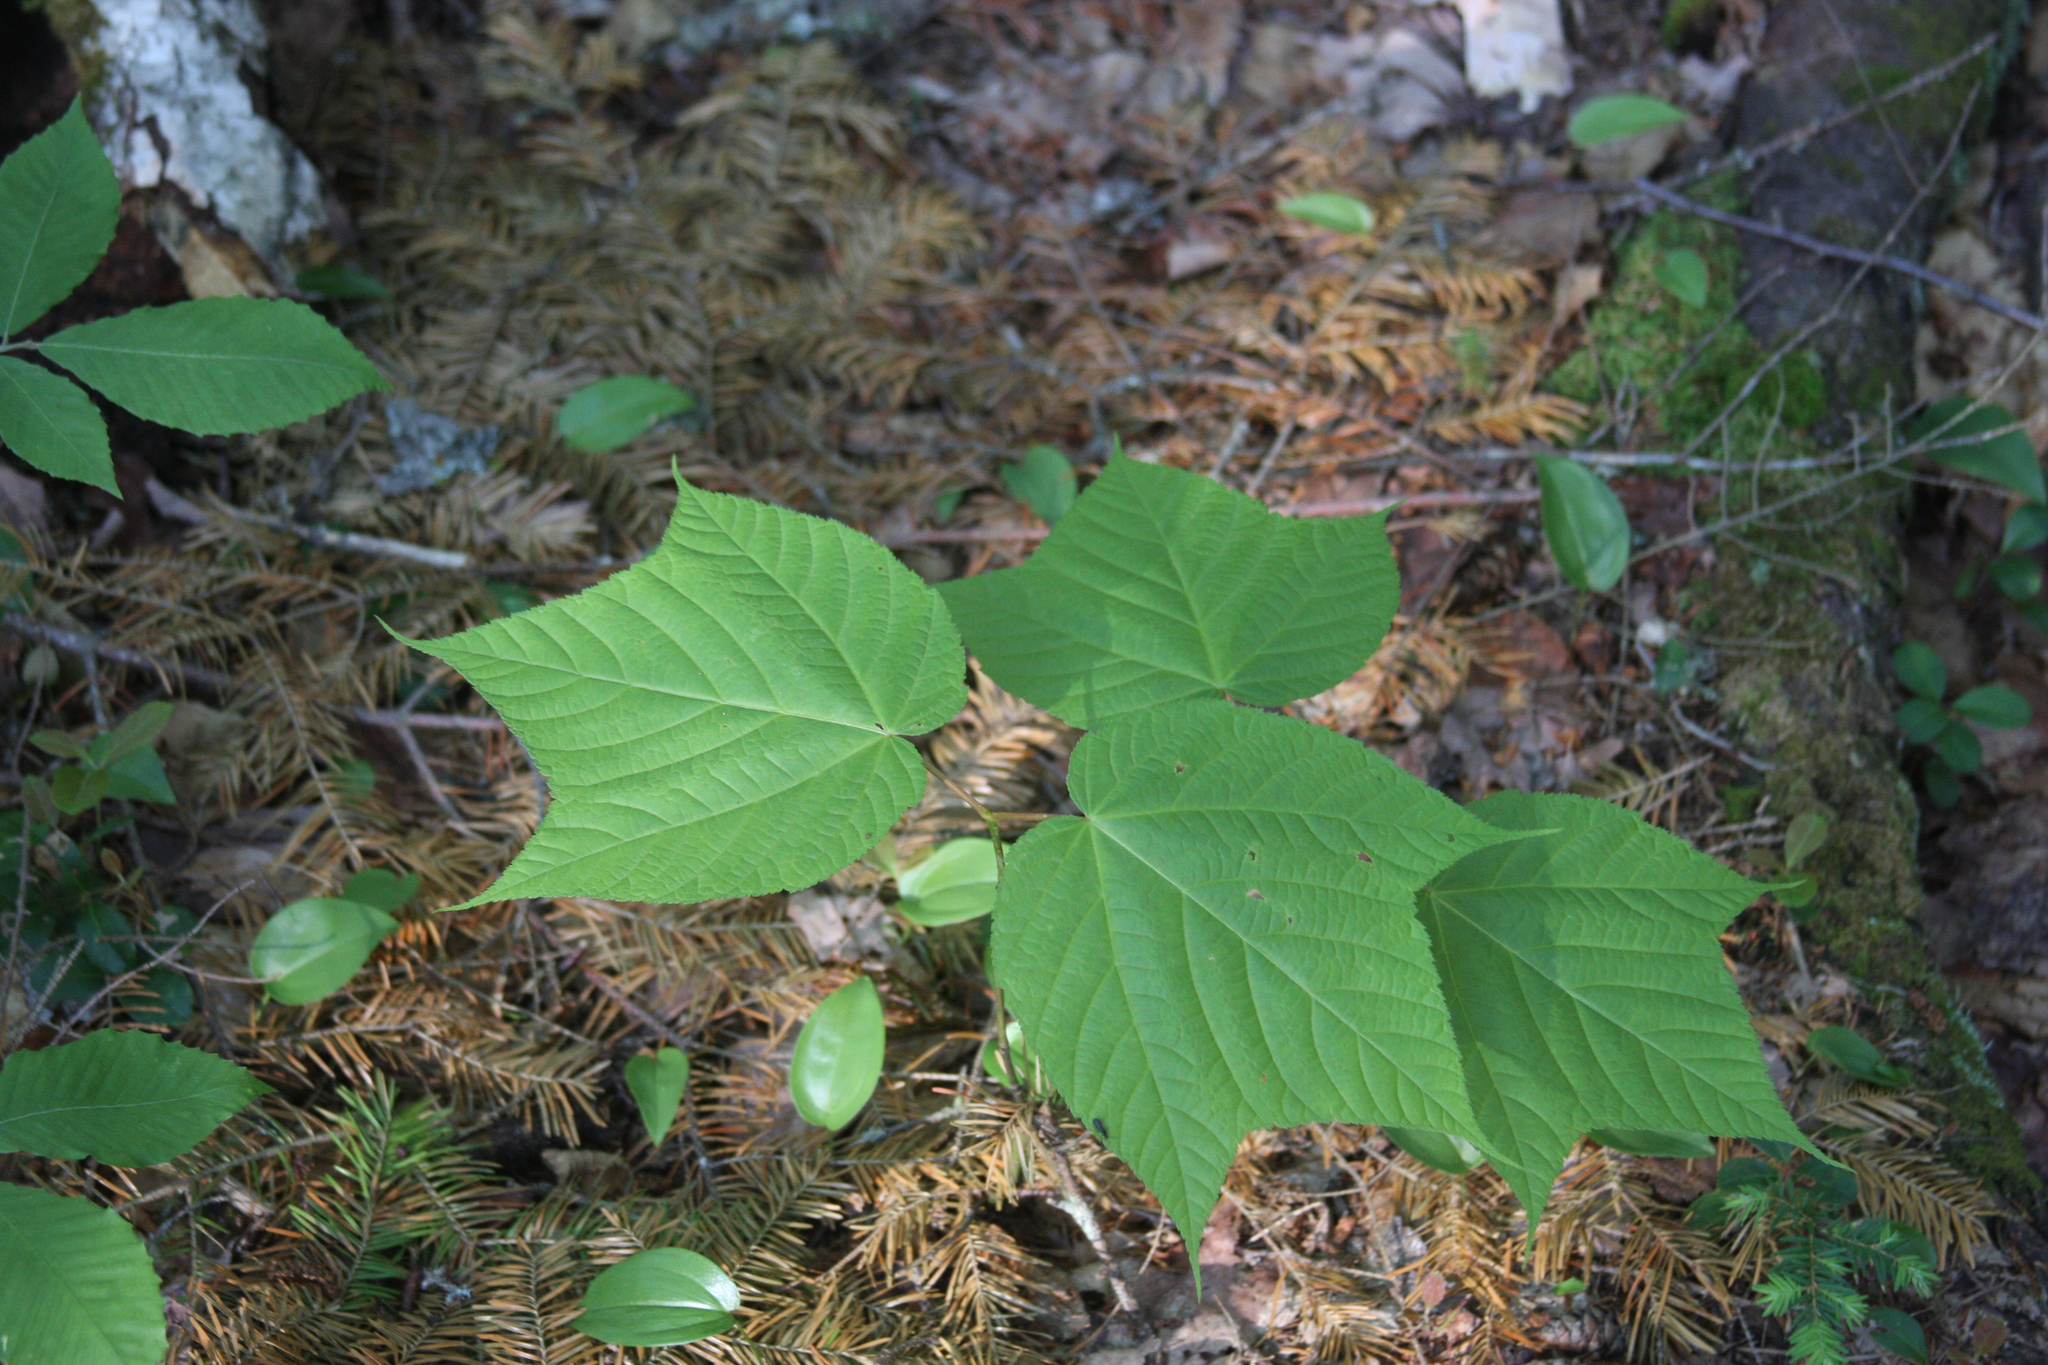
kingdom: Plantae
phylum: Tracheophyta
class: Magnoliopsida
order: Sapindales
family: Sapindaceae
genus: Acer
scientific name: Acer pensylvanicum
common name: Moosewood
